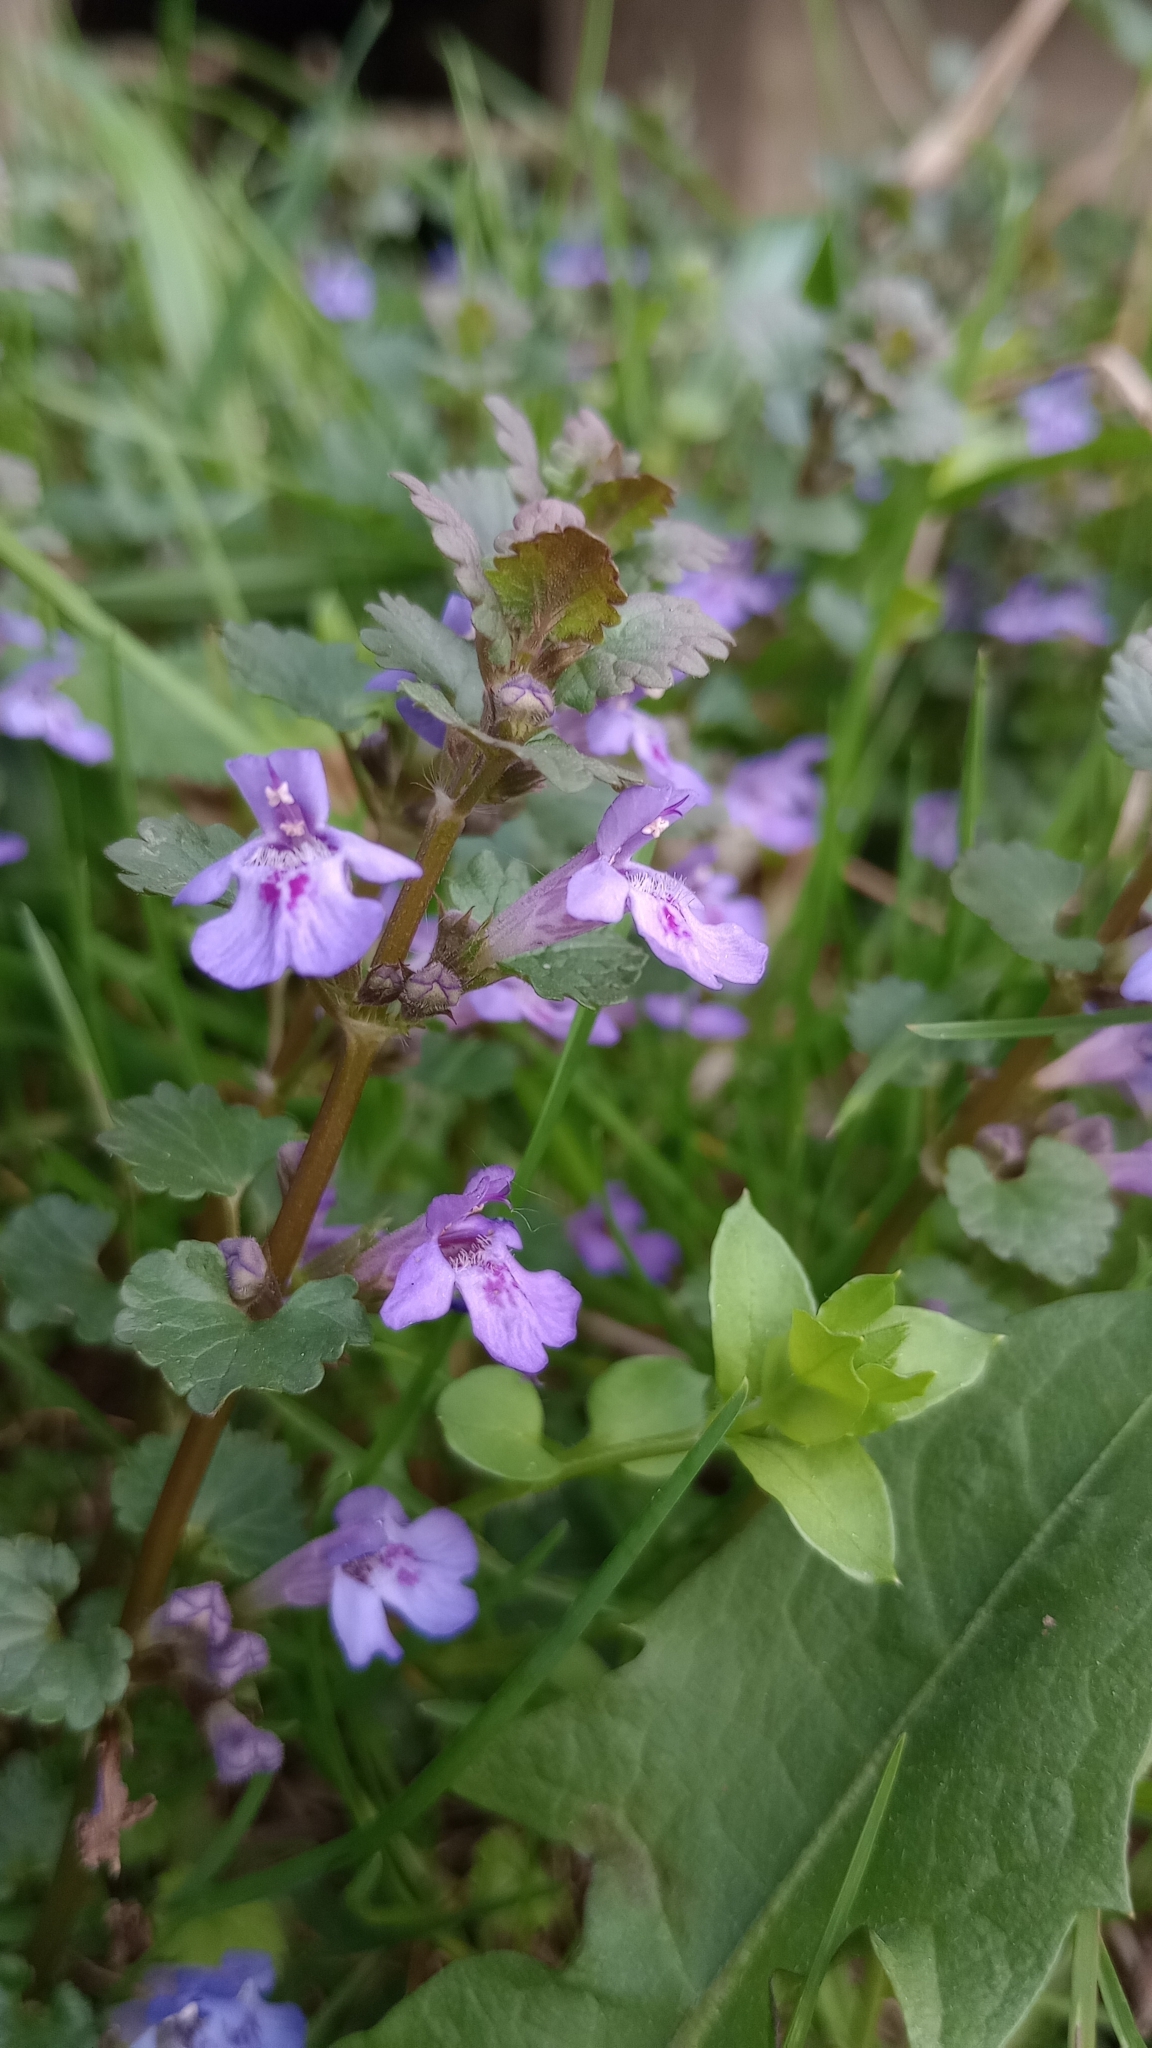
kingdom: Plantae
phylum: Tracheophyta
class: Magnoliopsida
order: Lamiales
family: Lamiaceae
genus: Glechoma
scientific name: Glechoma hederacea
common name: Ground ivy
